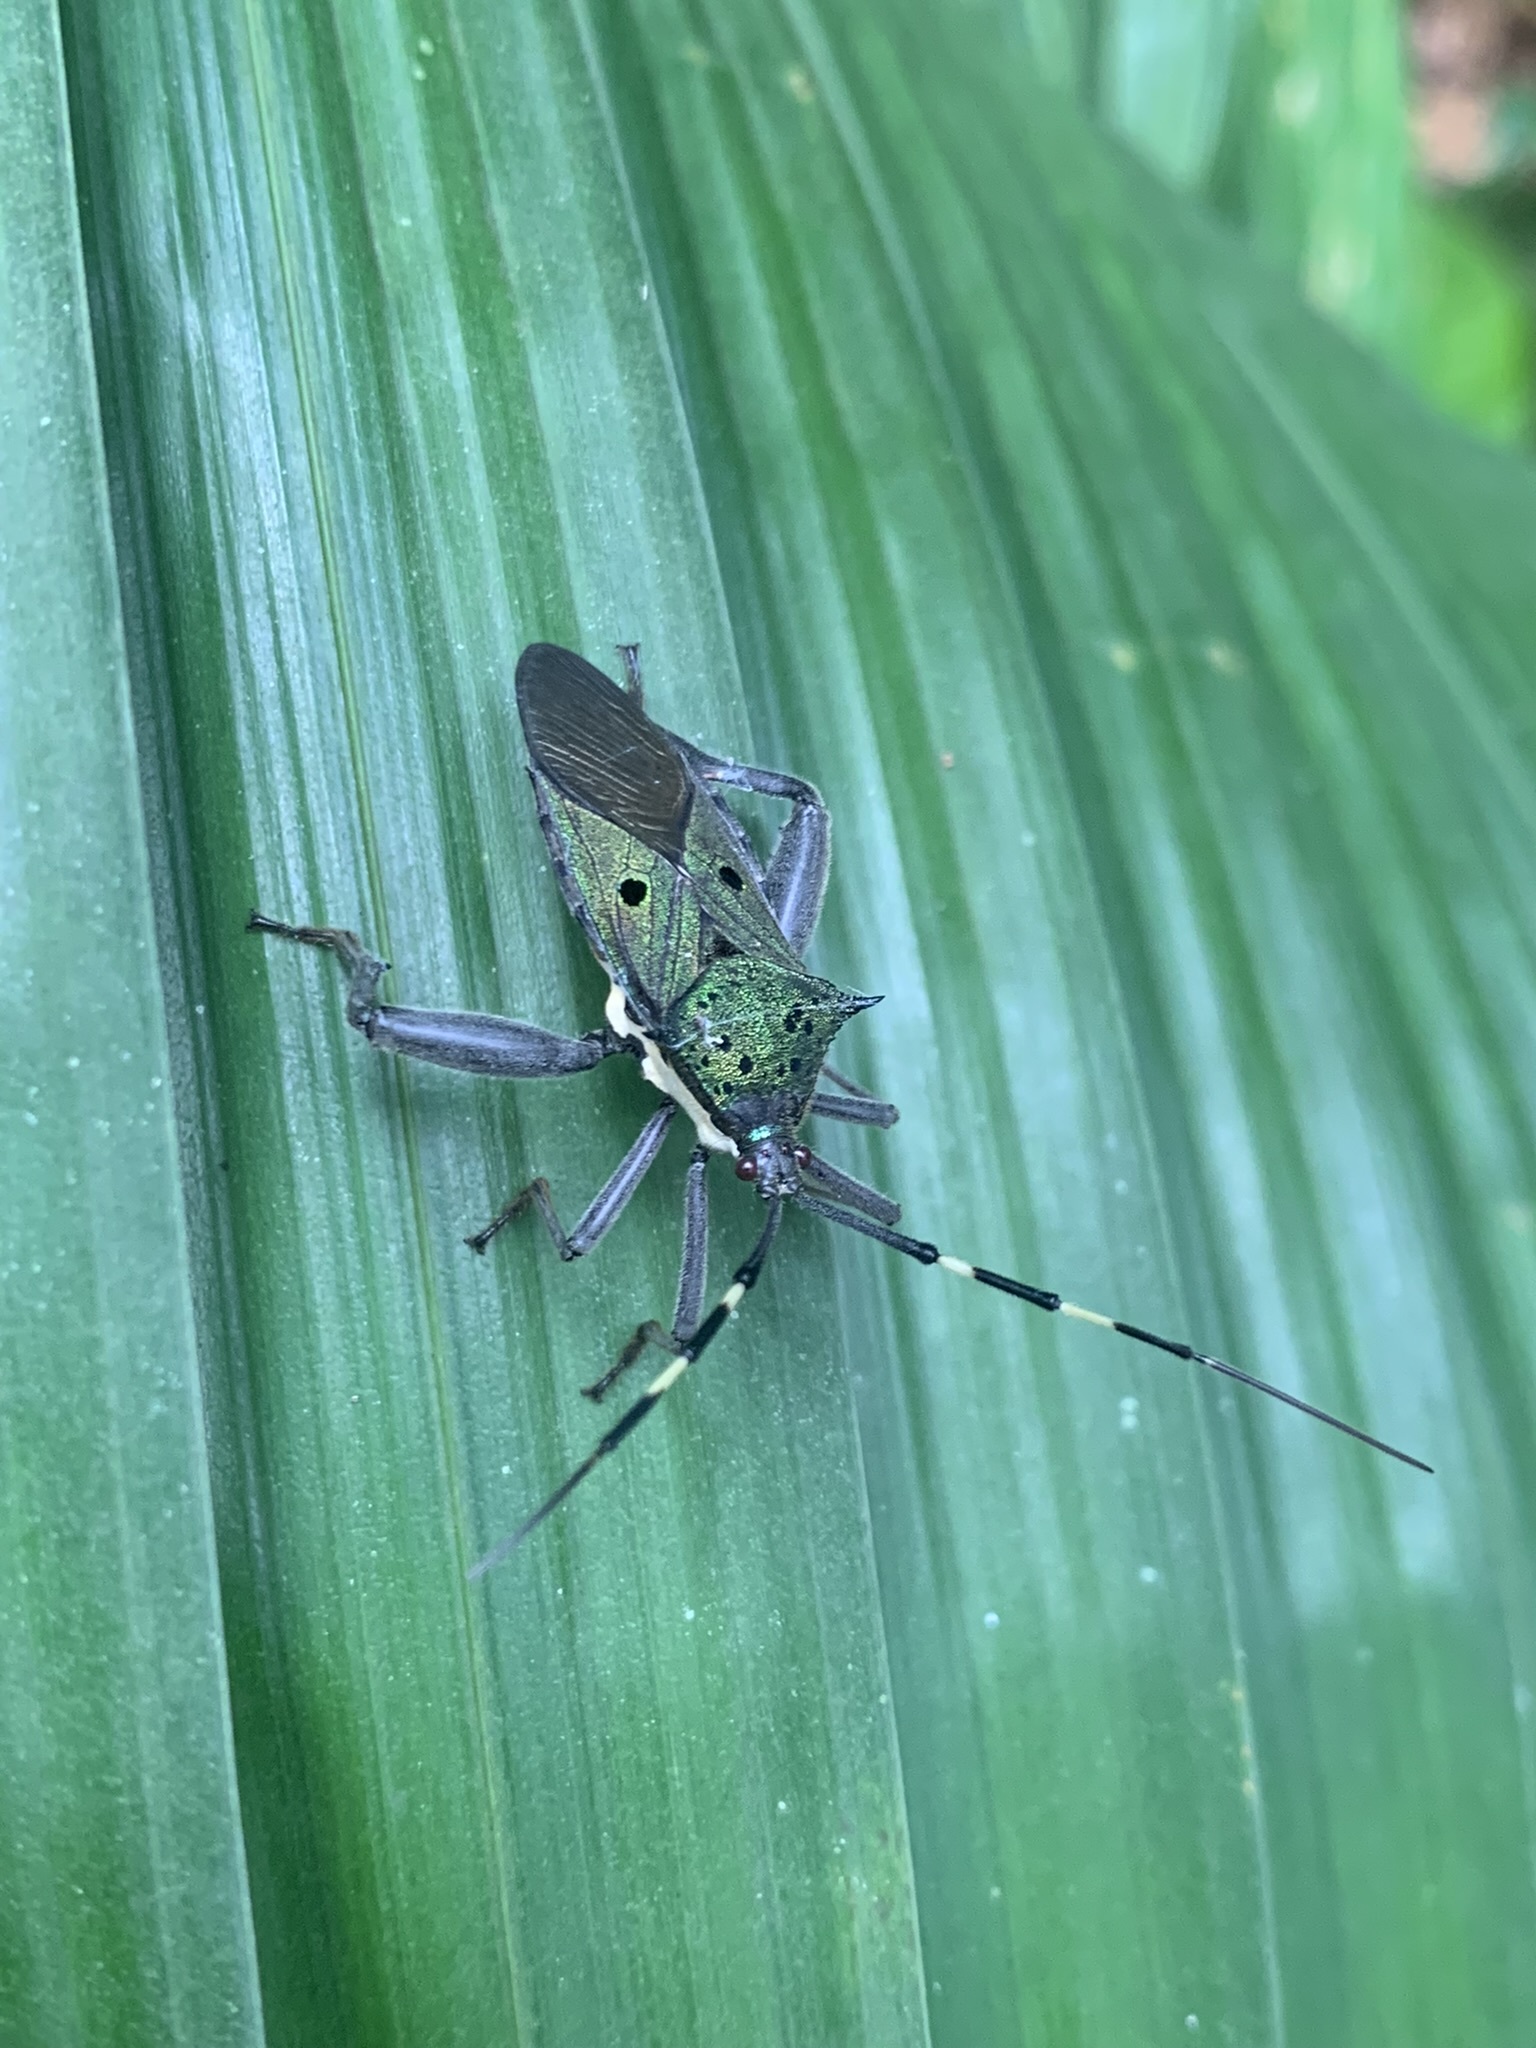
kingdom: Animalia
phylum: Arthropoda
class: Insecta
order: Hemiptera
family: Coreidae
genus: Molchina
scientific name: Molchina hopei
